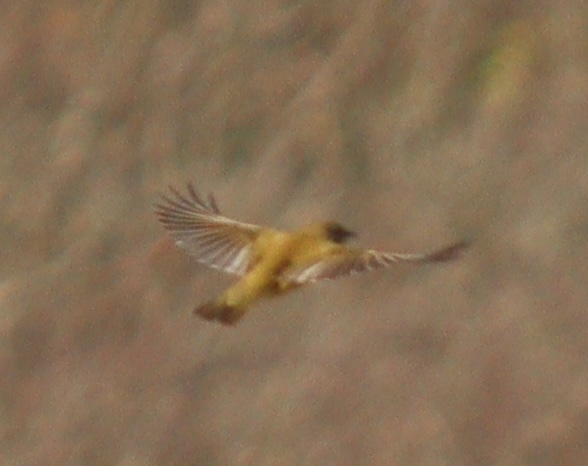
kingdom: Plantae
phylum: Tracheophyta
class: Liliopsida
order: Poales
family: Poaceae
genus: Chloris
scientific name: Chloris chloris
